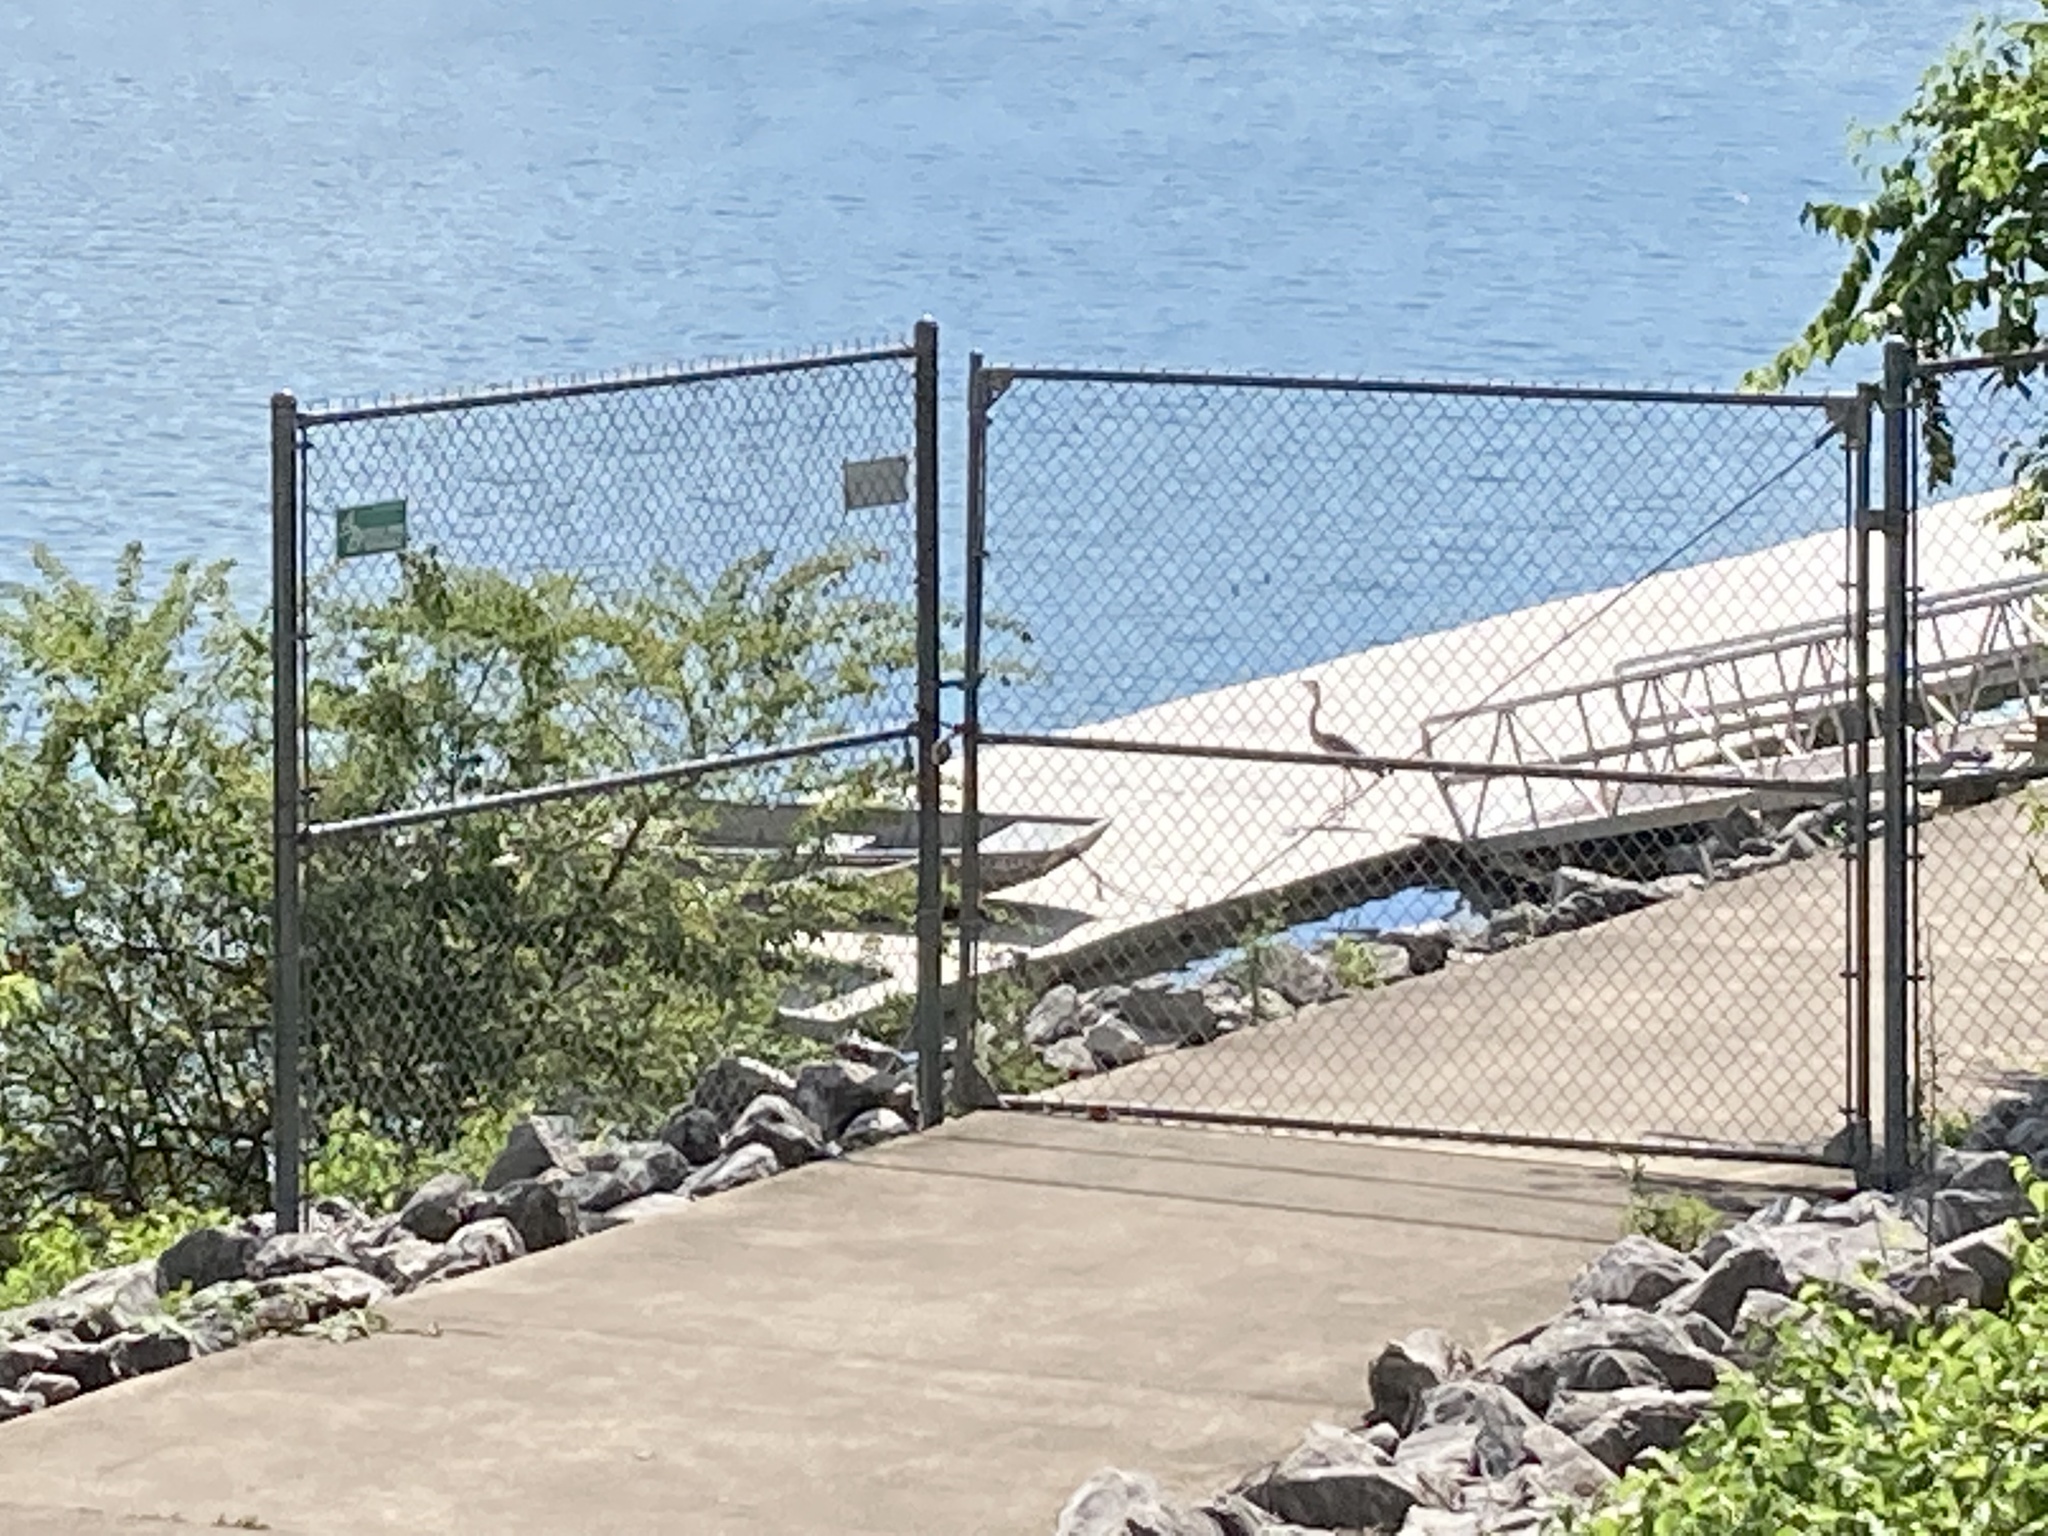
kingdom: Animalia
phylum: Chordata
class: Aves
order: Pelecaniformes
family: Ardeidae
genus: Ardea
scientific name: Ardea herodias
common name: Great blue heron
